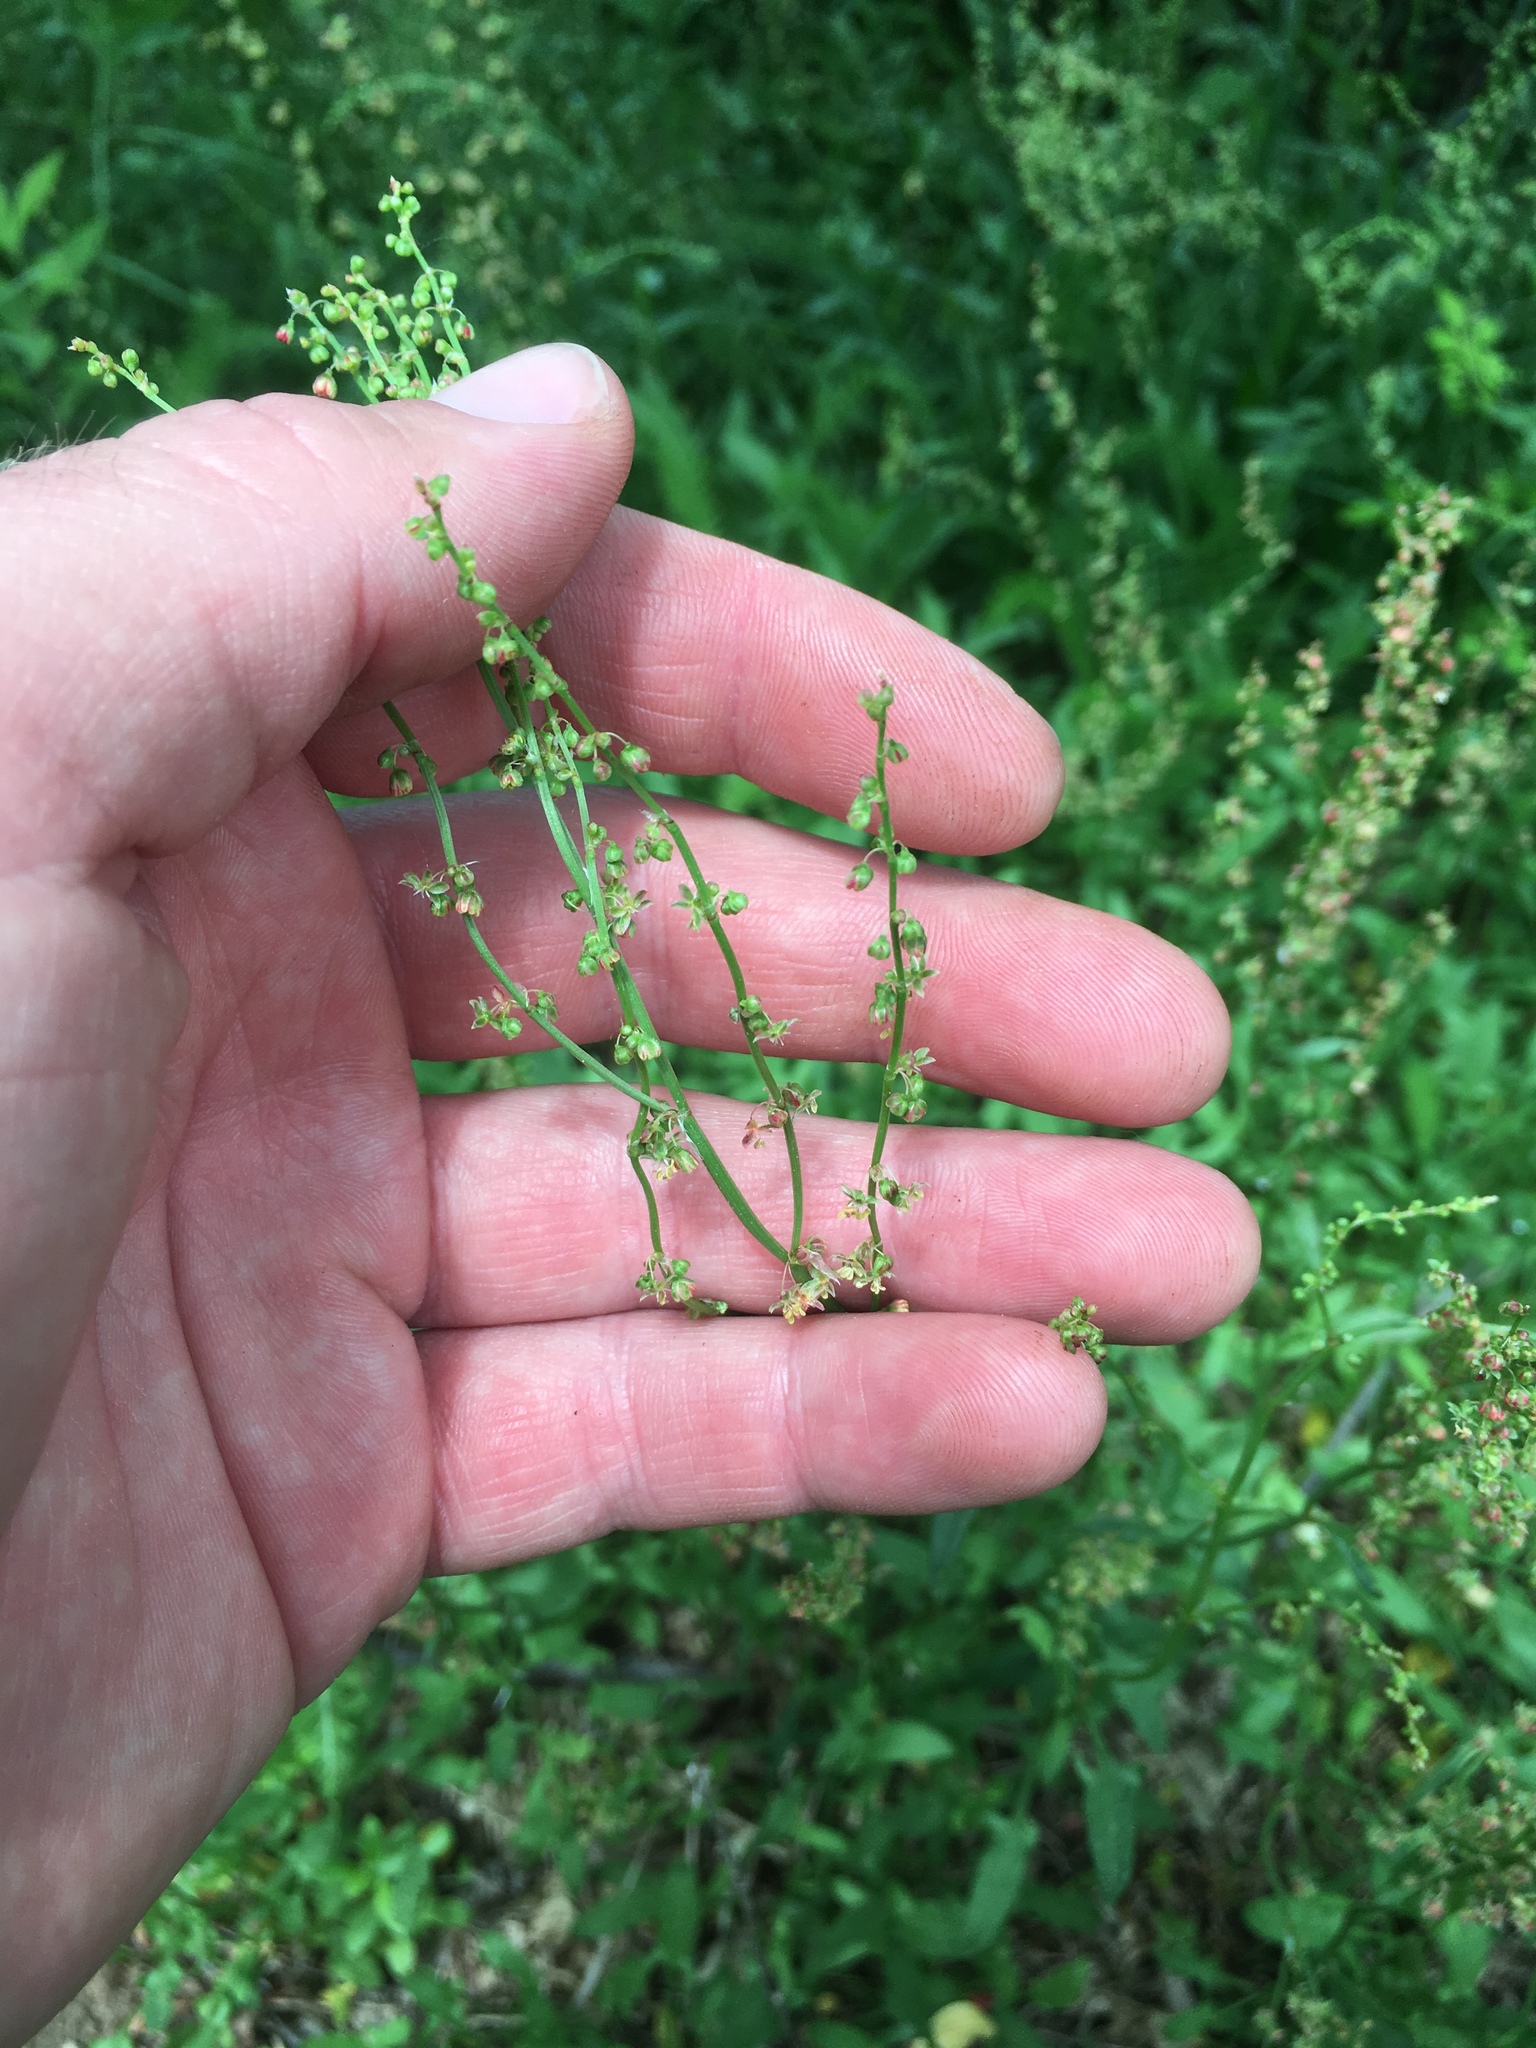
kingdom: Plantae
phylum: Tracheophyta
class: Magnoliopsida
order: Caryophyllales
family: Polygonaceae
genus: Rumex
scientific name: Rumex acetosella
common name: Common sheep sorrel
